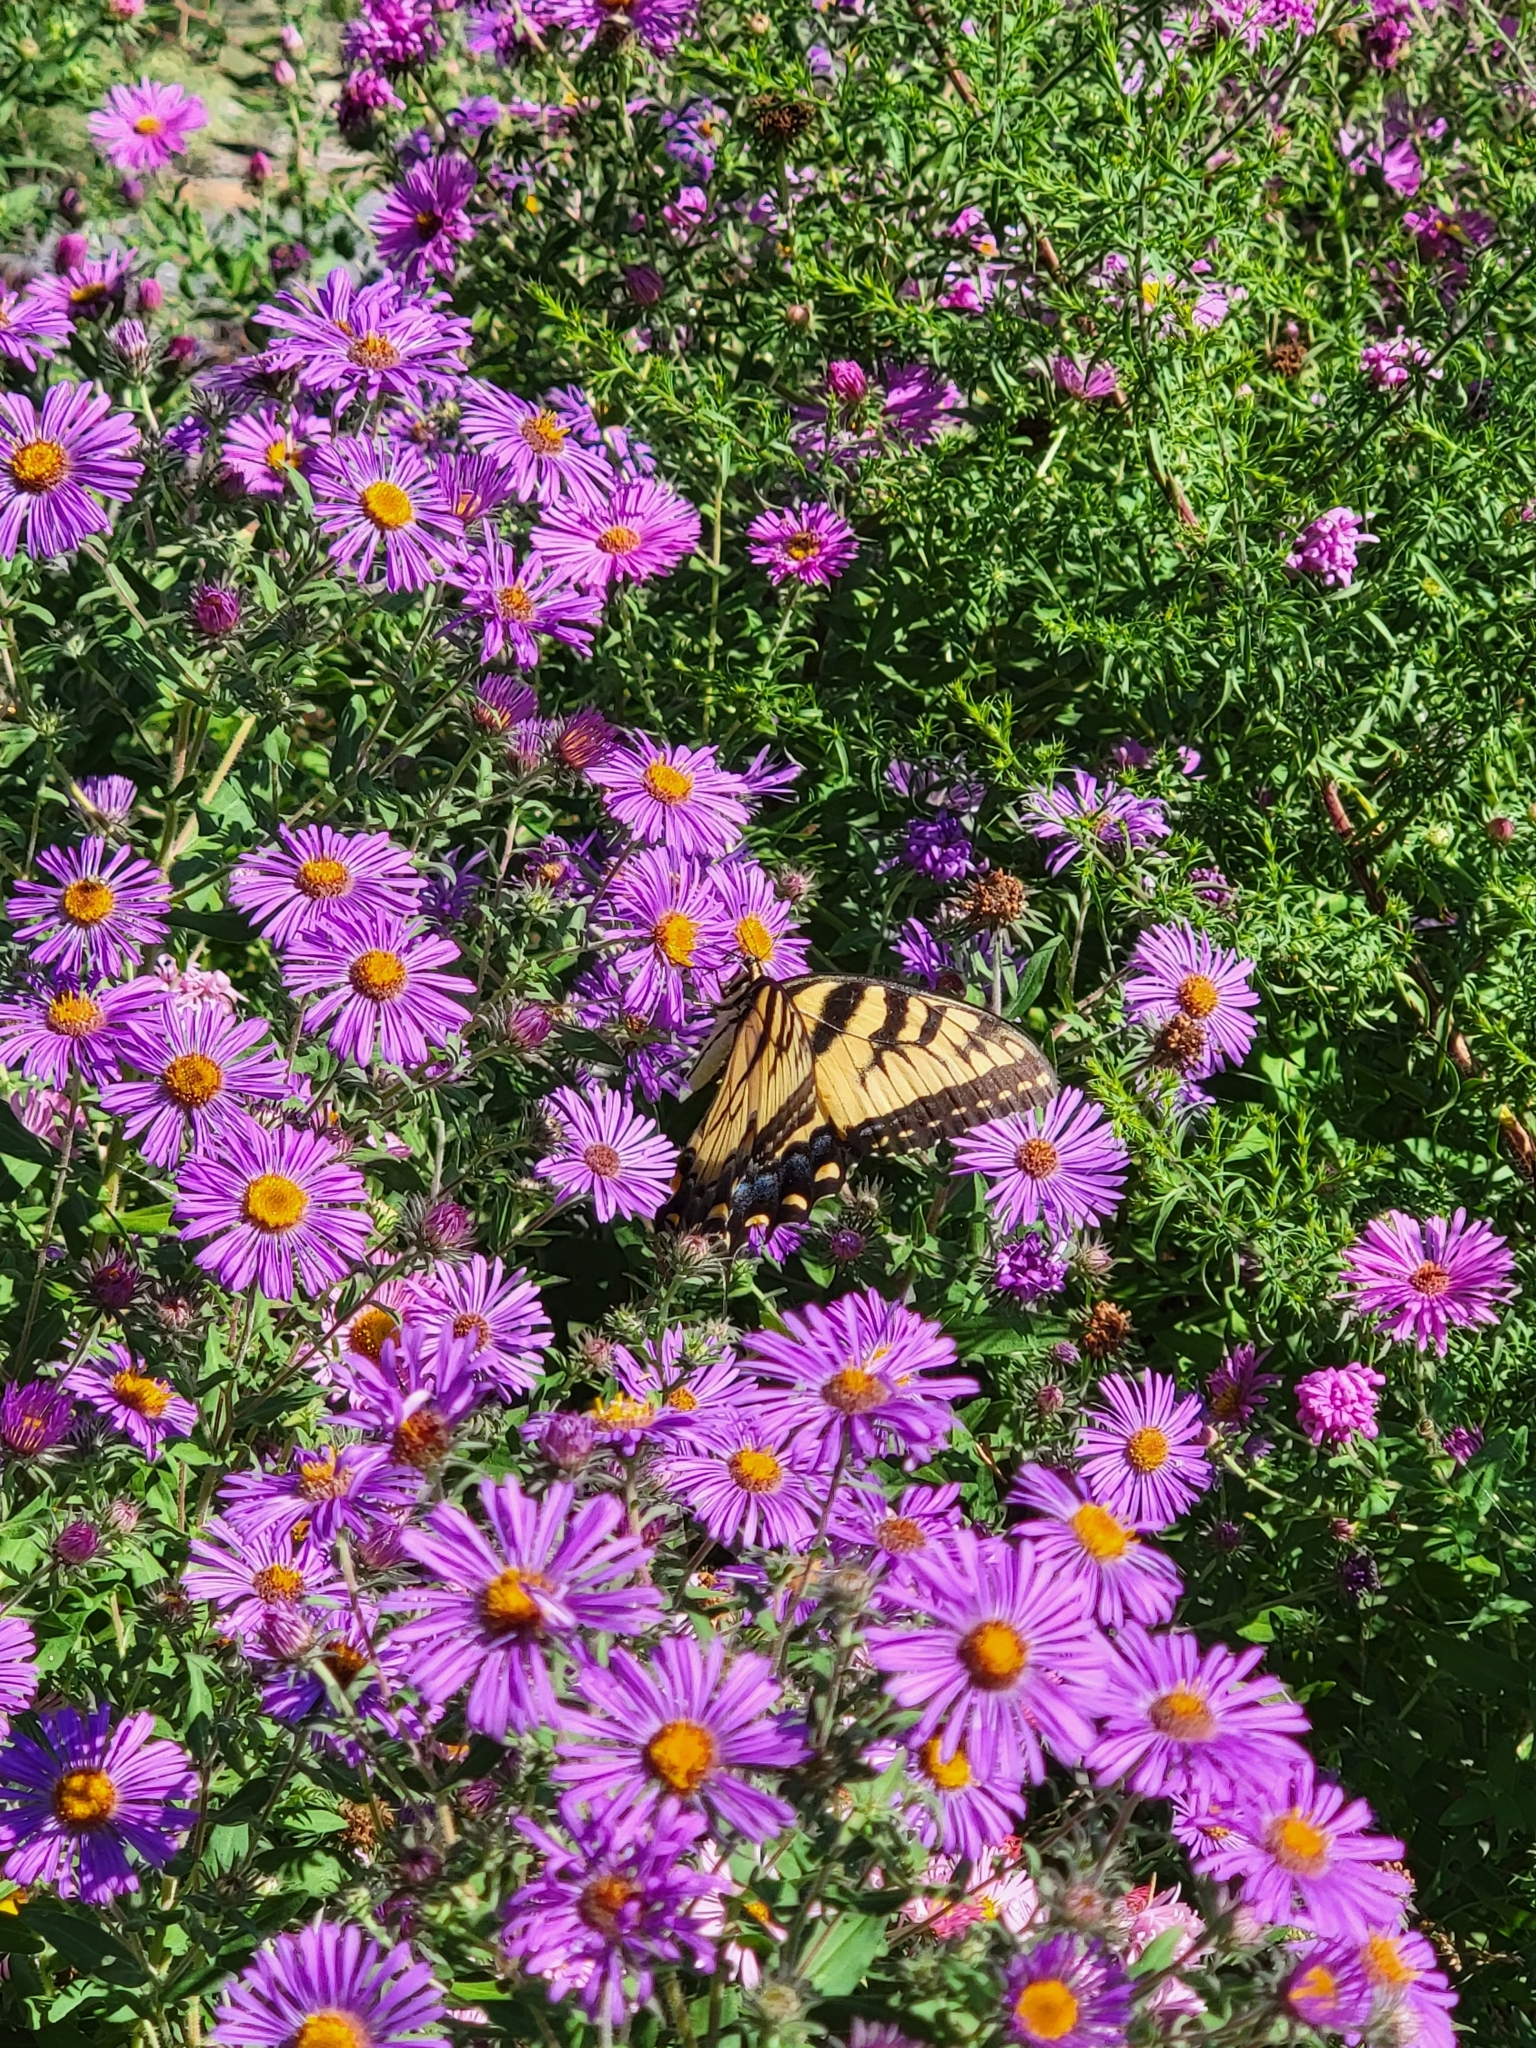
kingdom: Animalia
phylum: Arthropoda
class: Insecta
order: Lepidoptera
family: Papilionidae
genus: Papilio
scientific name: Papilio glaucus
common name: Tiger swallowtail
